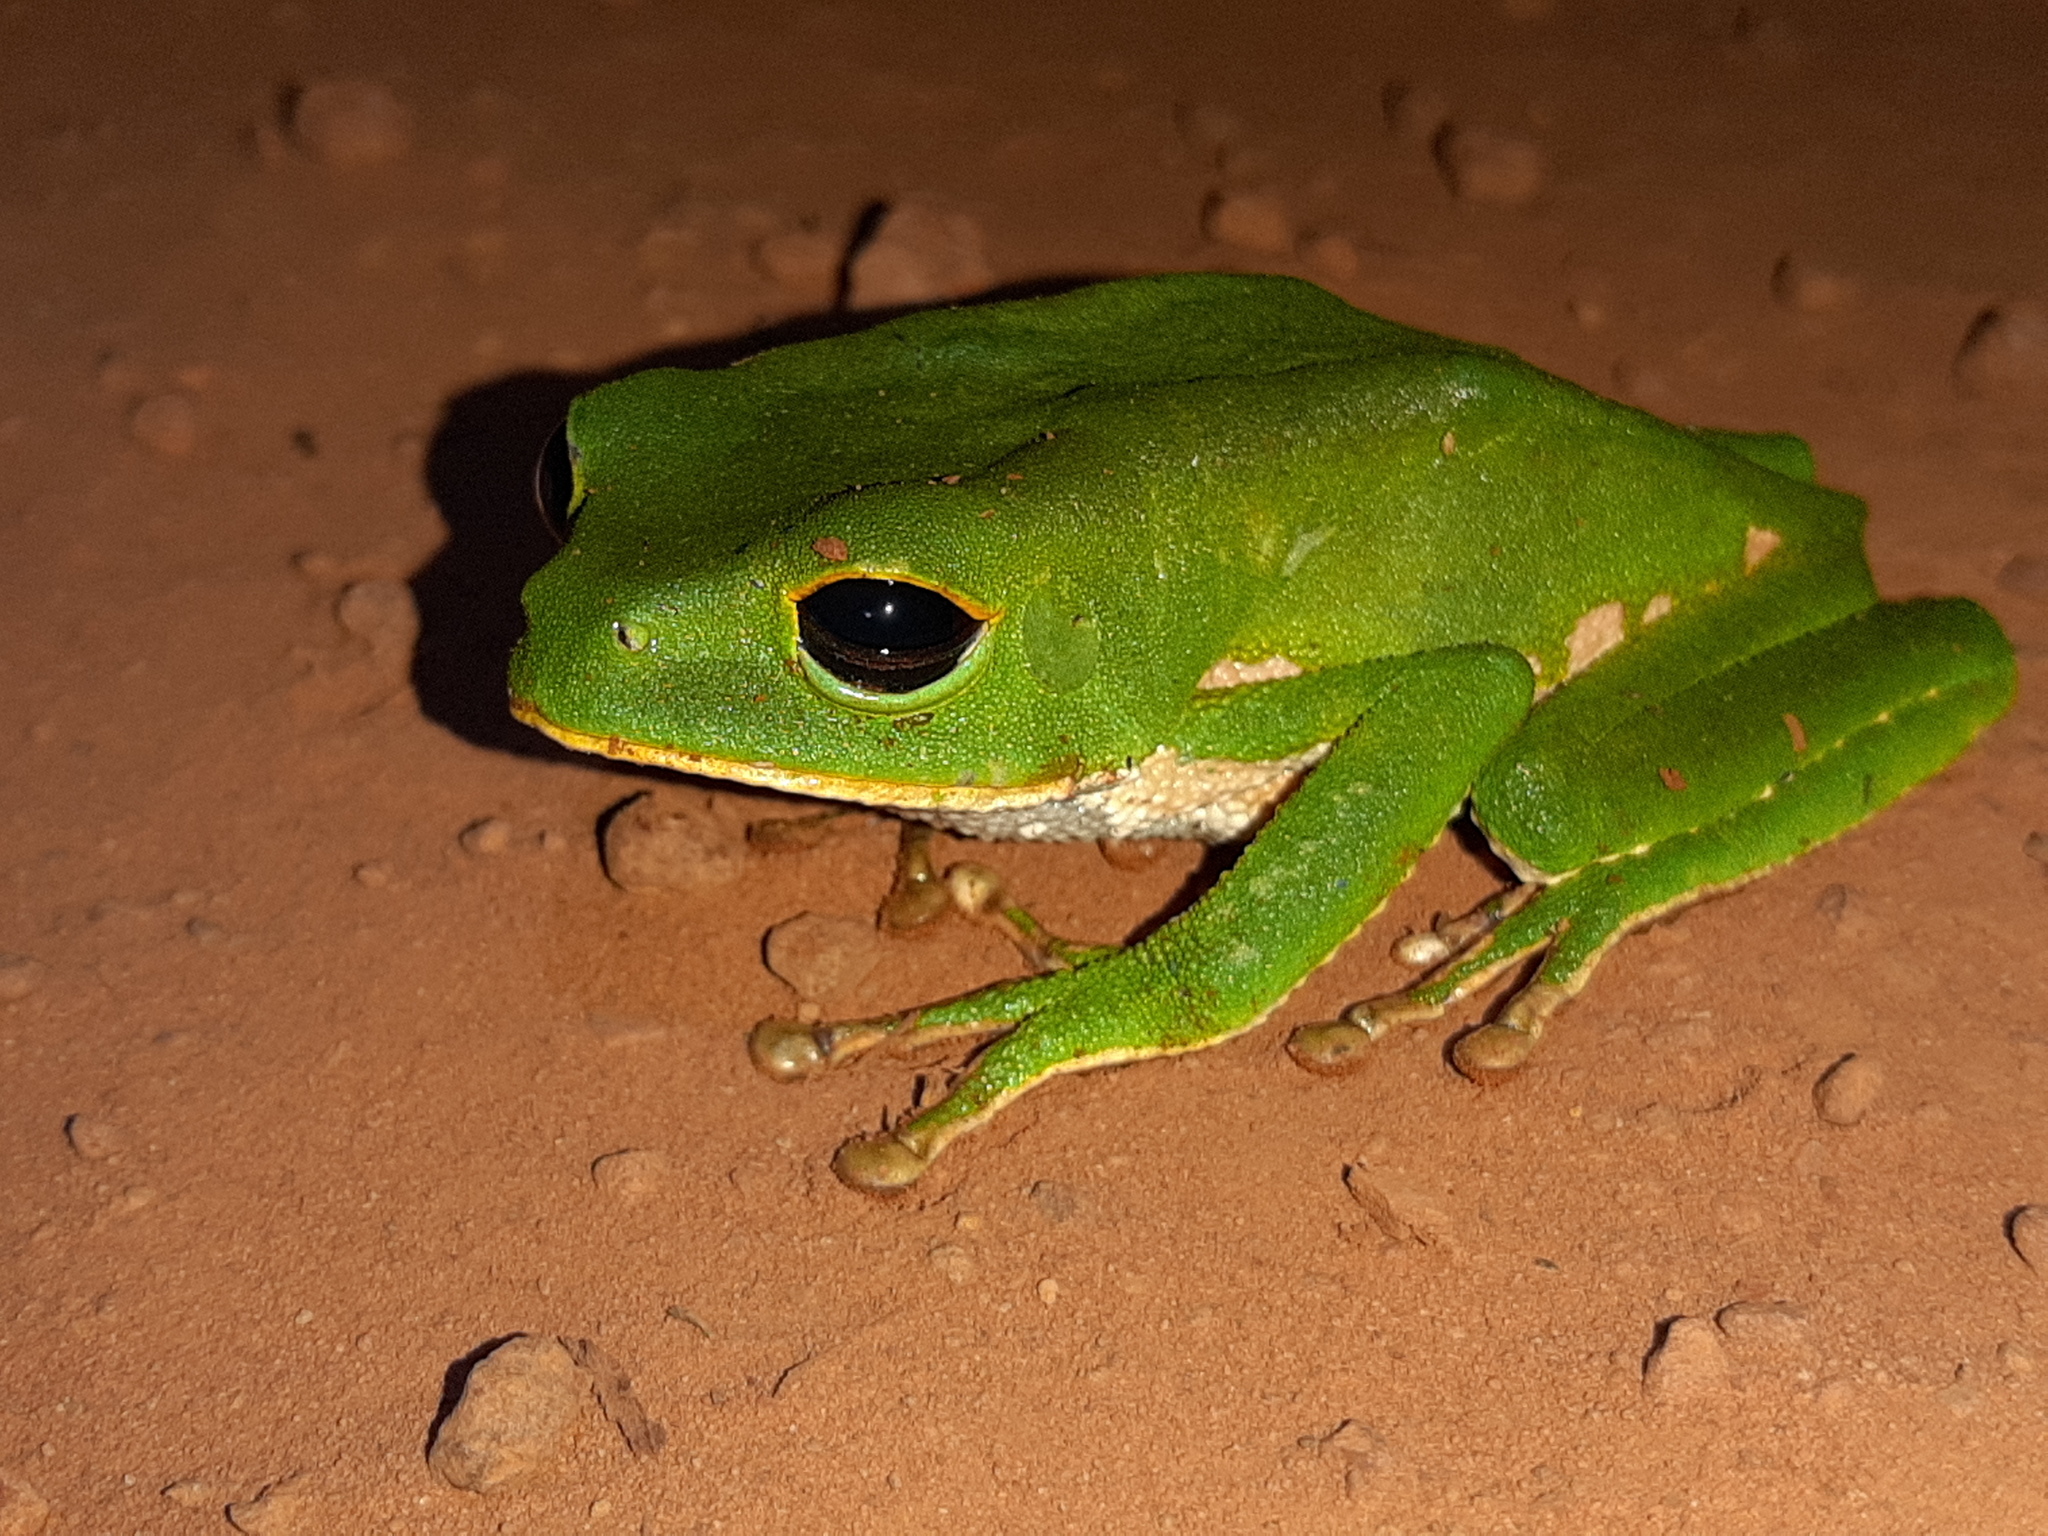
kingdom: Animalia
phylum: Chordata
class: Amphibia
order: Anura
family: Phyllomedusidae
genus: Phyllomedusa
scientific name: Phyllomedusa camba
